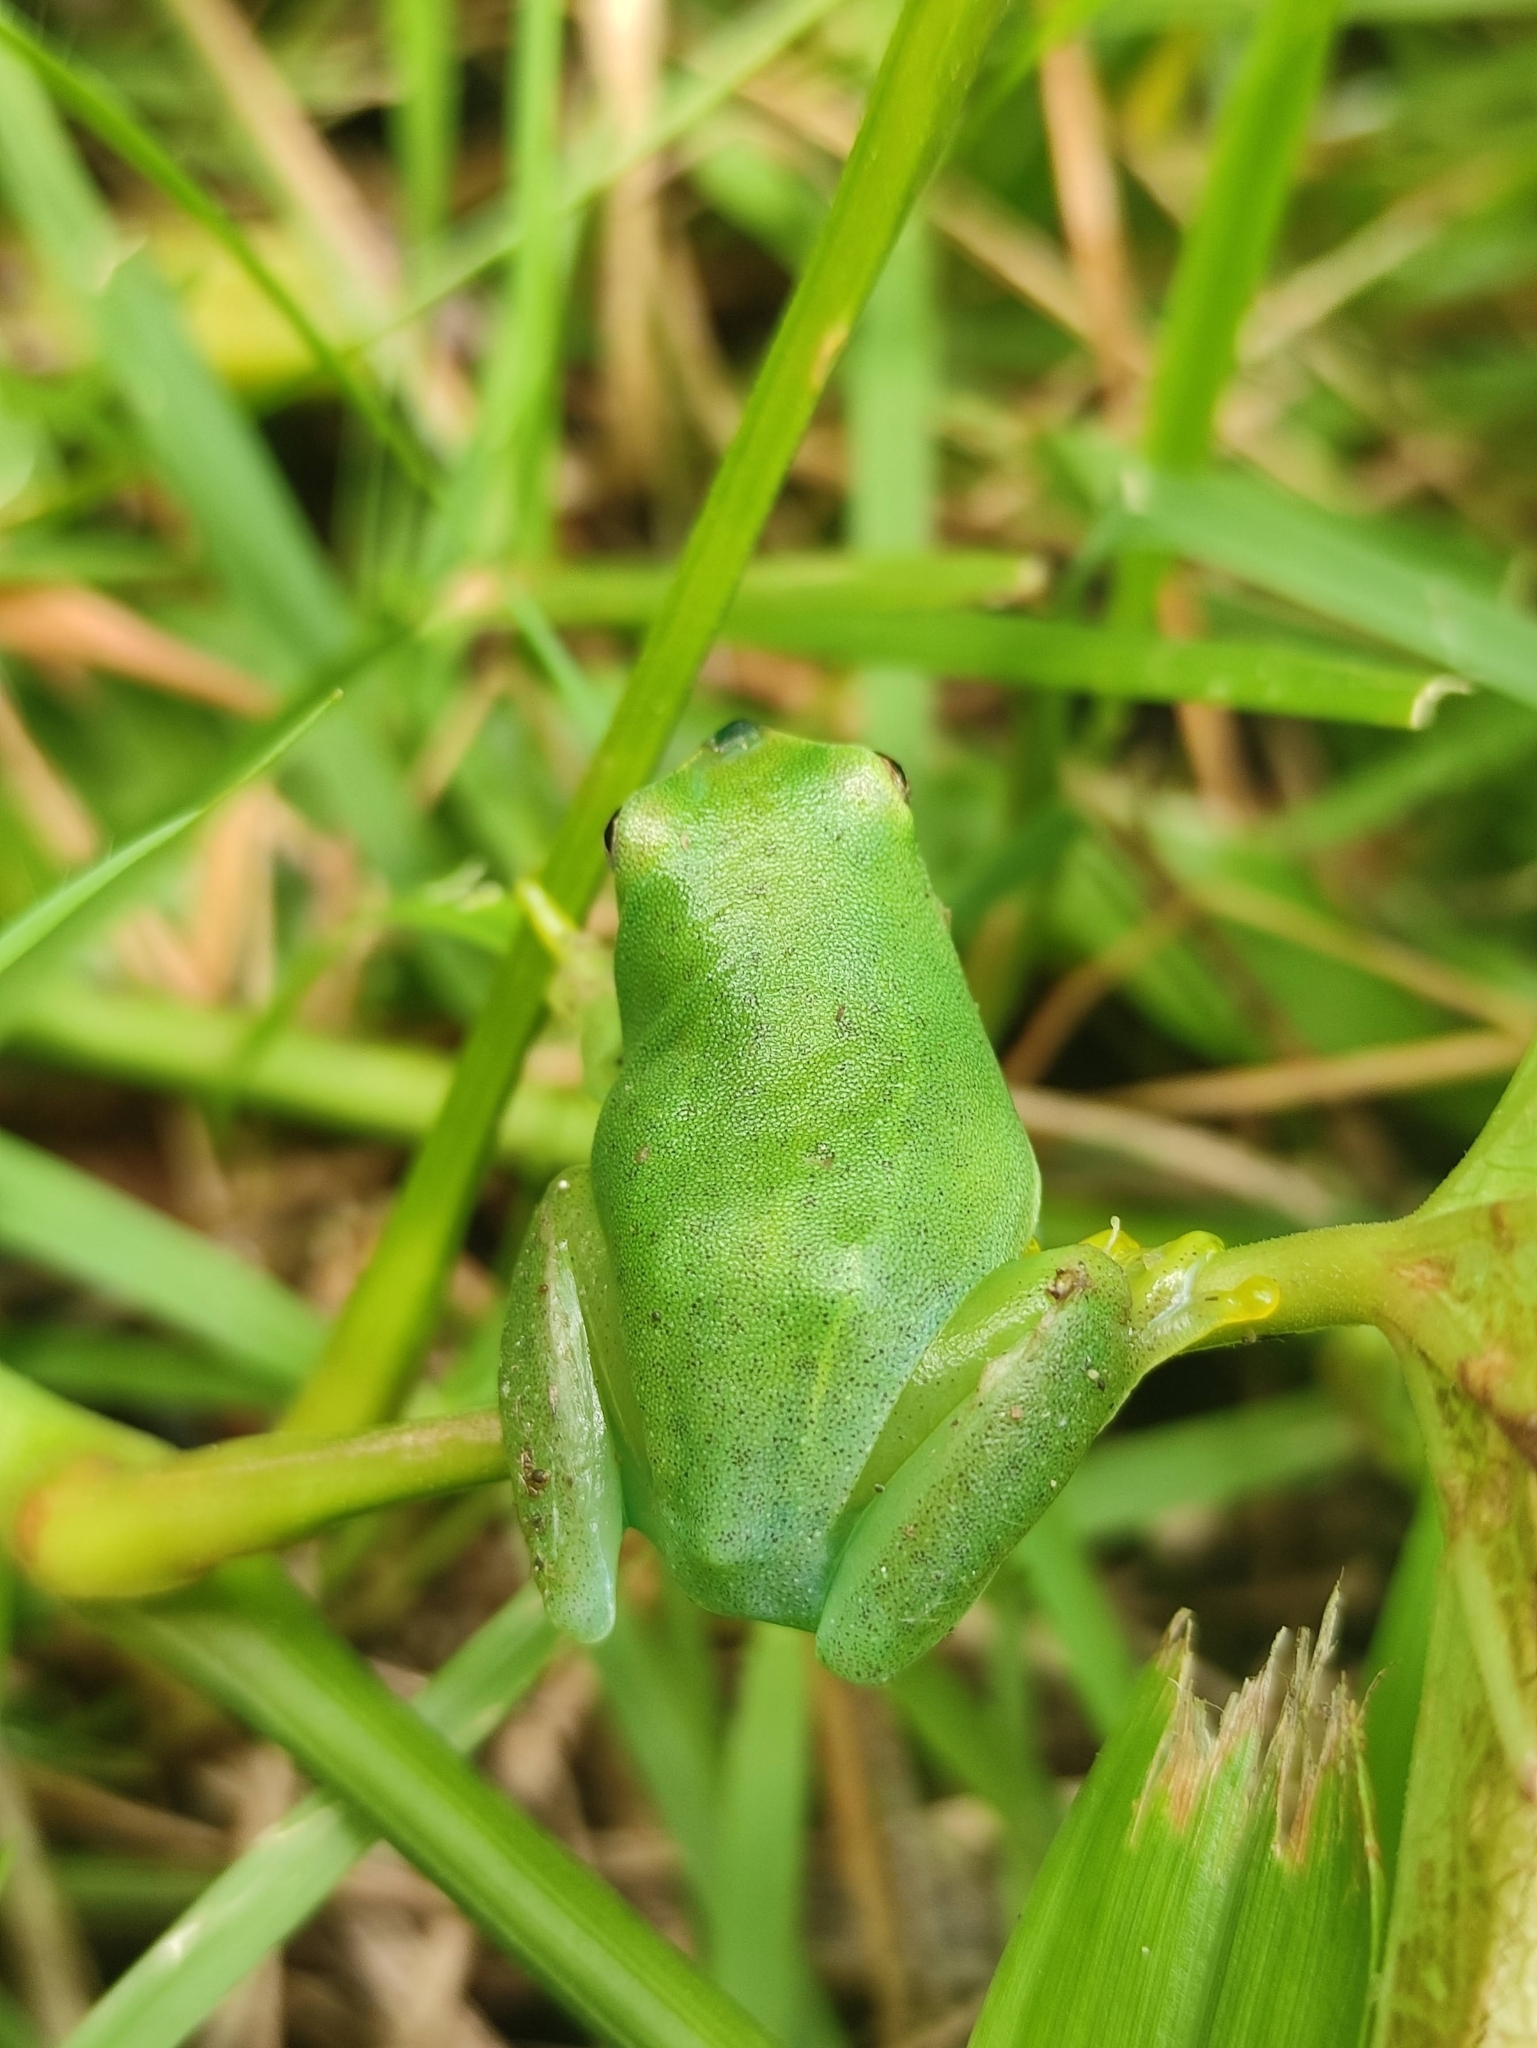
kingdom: Animalia
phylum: Chordata
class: Amphibia
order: Anura
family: Hylidae
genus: Sphaenorhynchus
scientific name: Sphaenorhynchus prasinus
